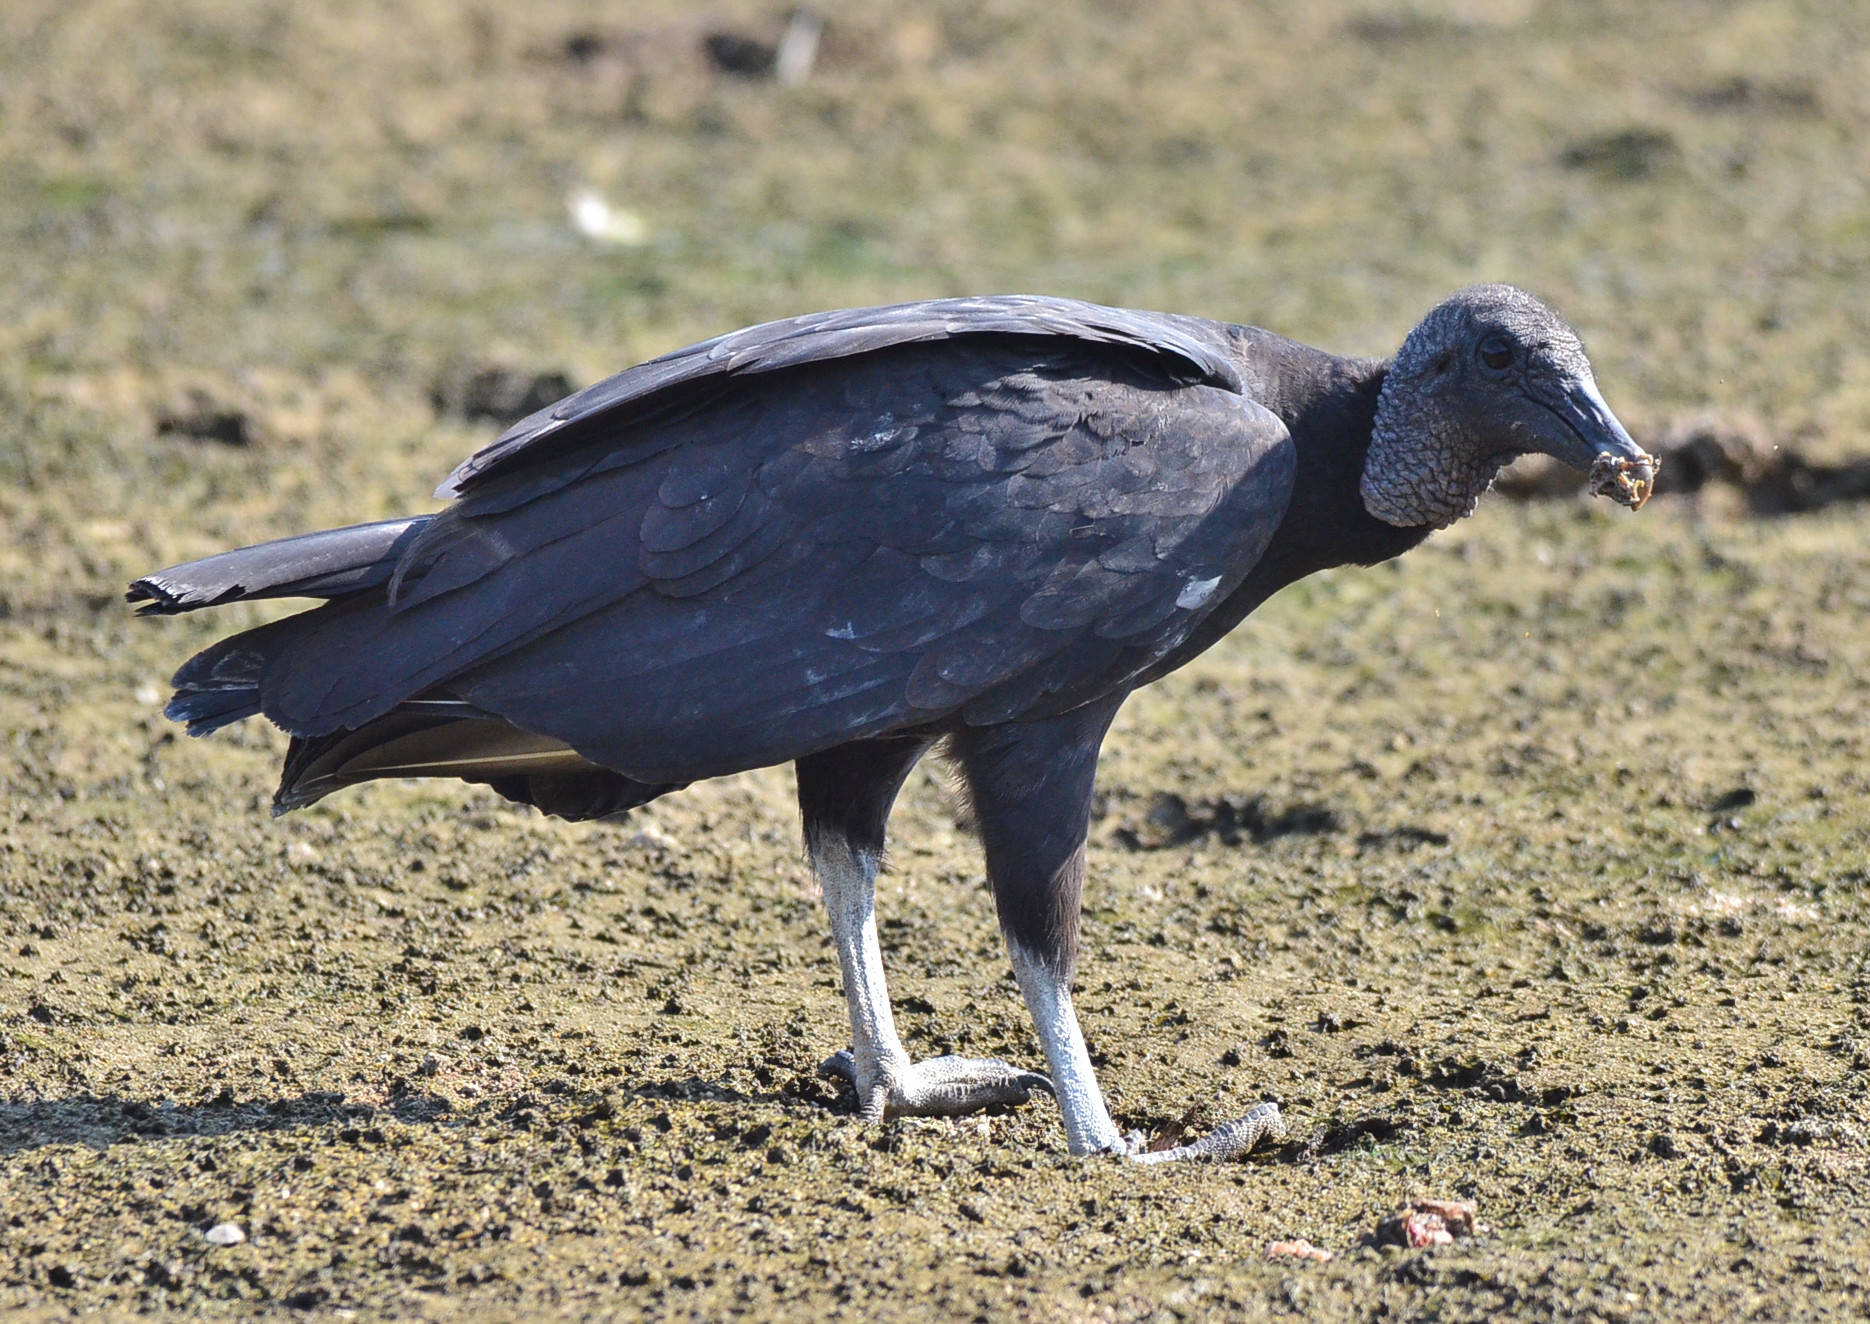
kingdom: Animalia
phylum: Chordata
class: Aves
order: Accipitriformes
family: Cathartidae
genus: Coragyps
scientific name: Coragyps atratus
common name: Black vulture
